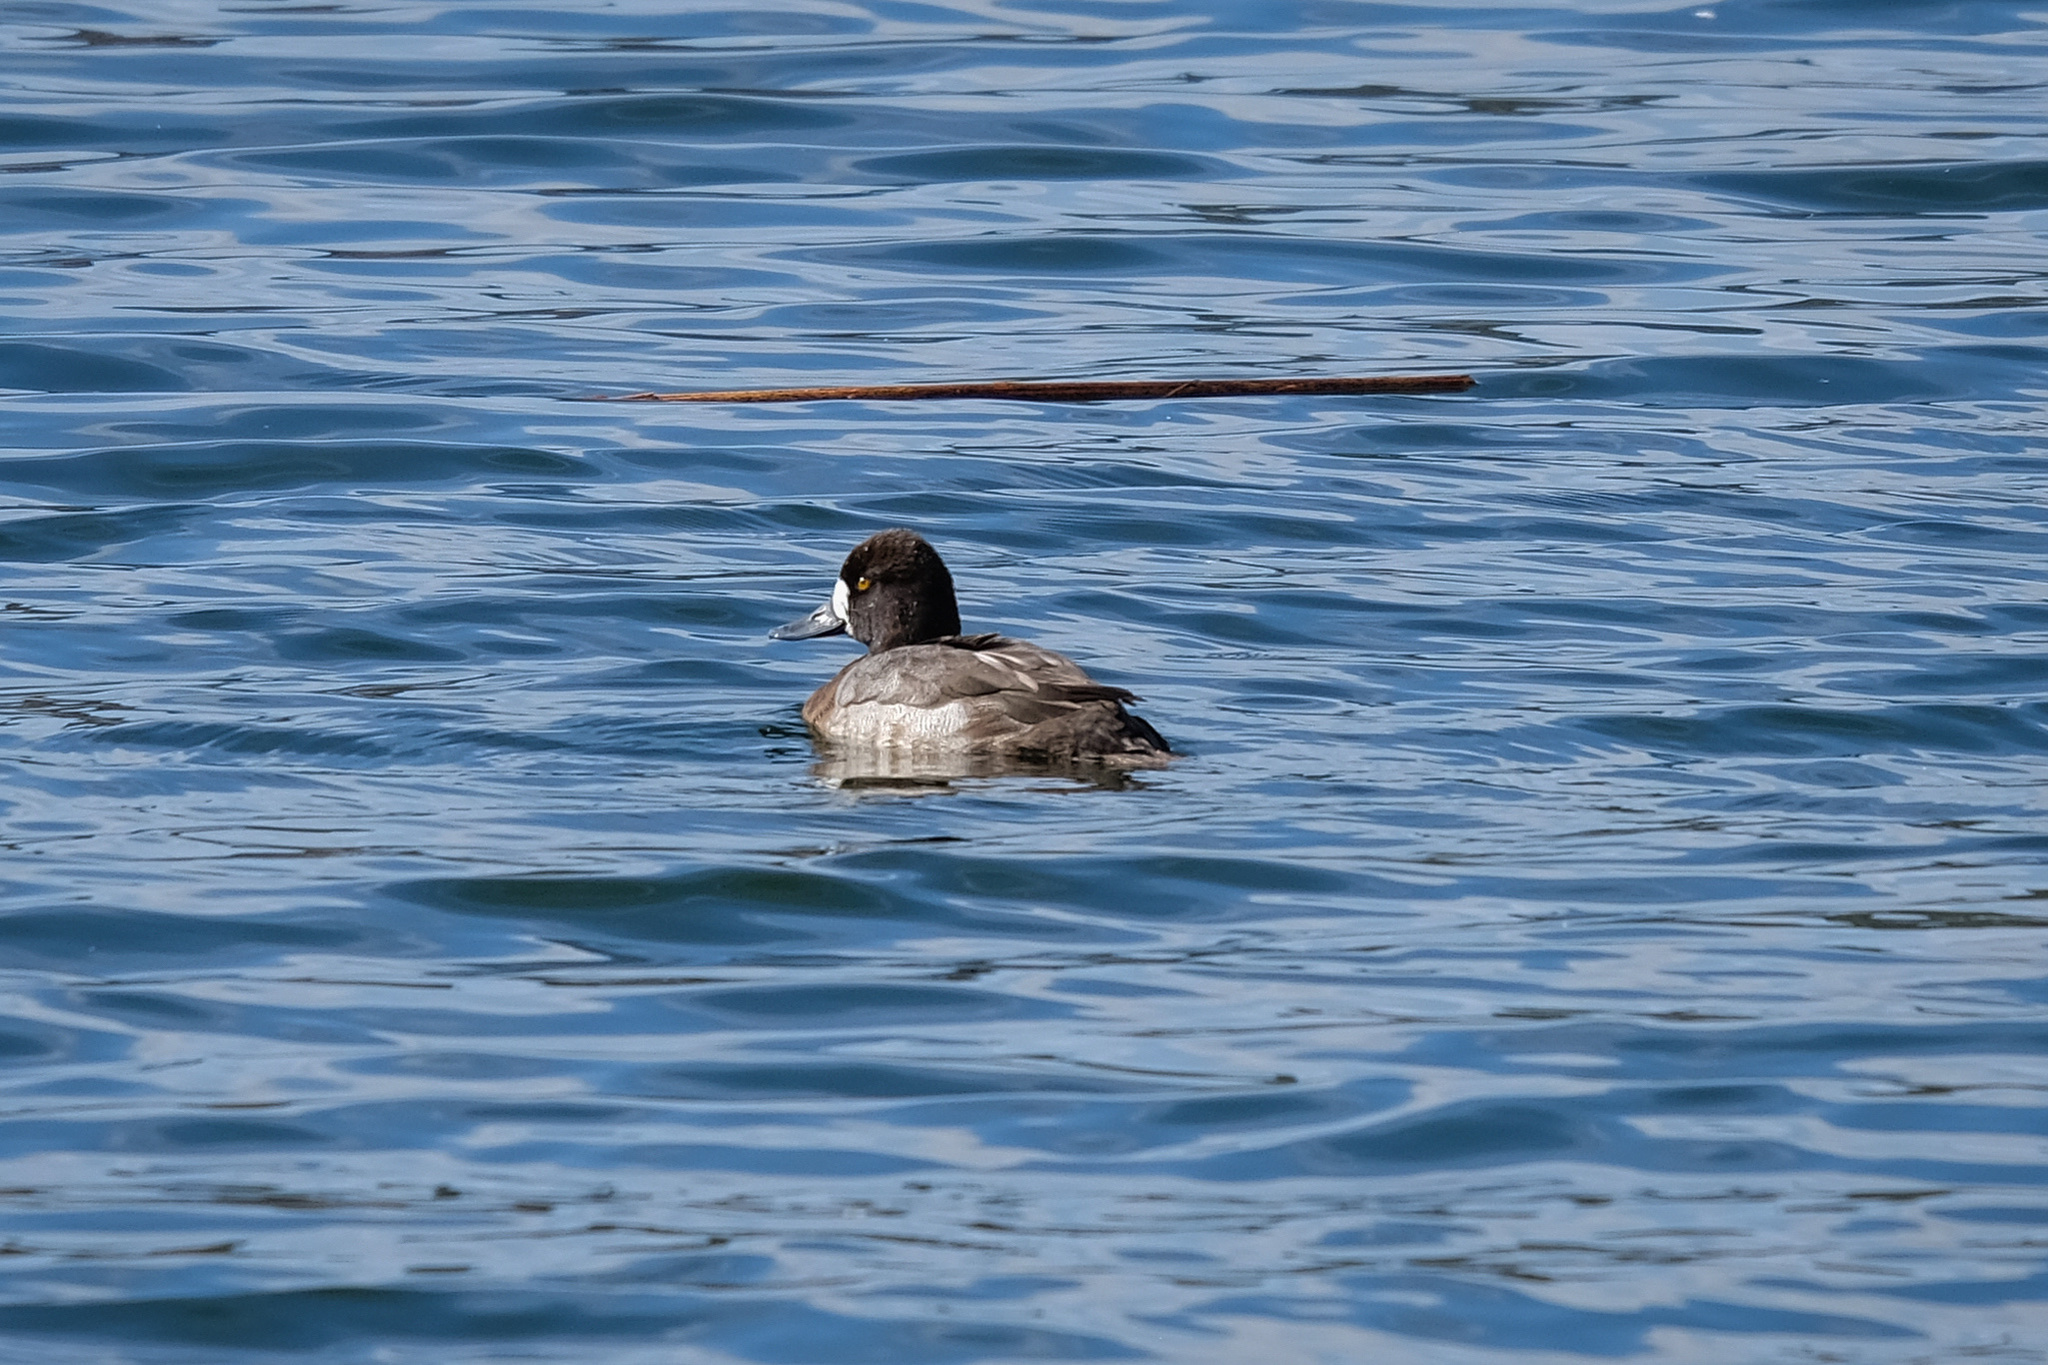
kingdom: Animalia
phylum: Chordata
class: Aves
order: Anseriformes
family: Anatidae
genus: Aythya
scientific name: Aythya marila
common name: Greater scaup
